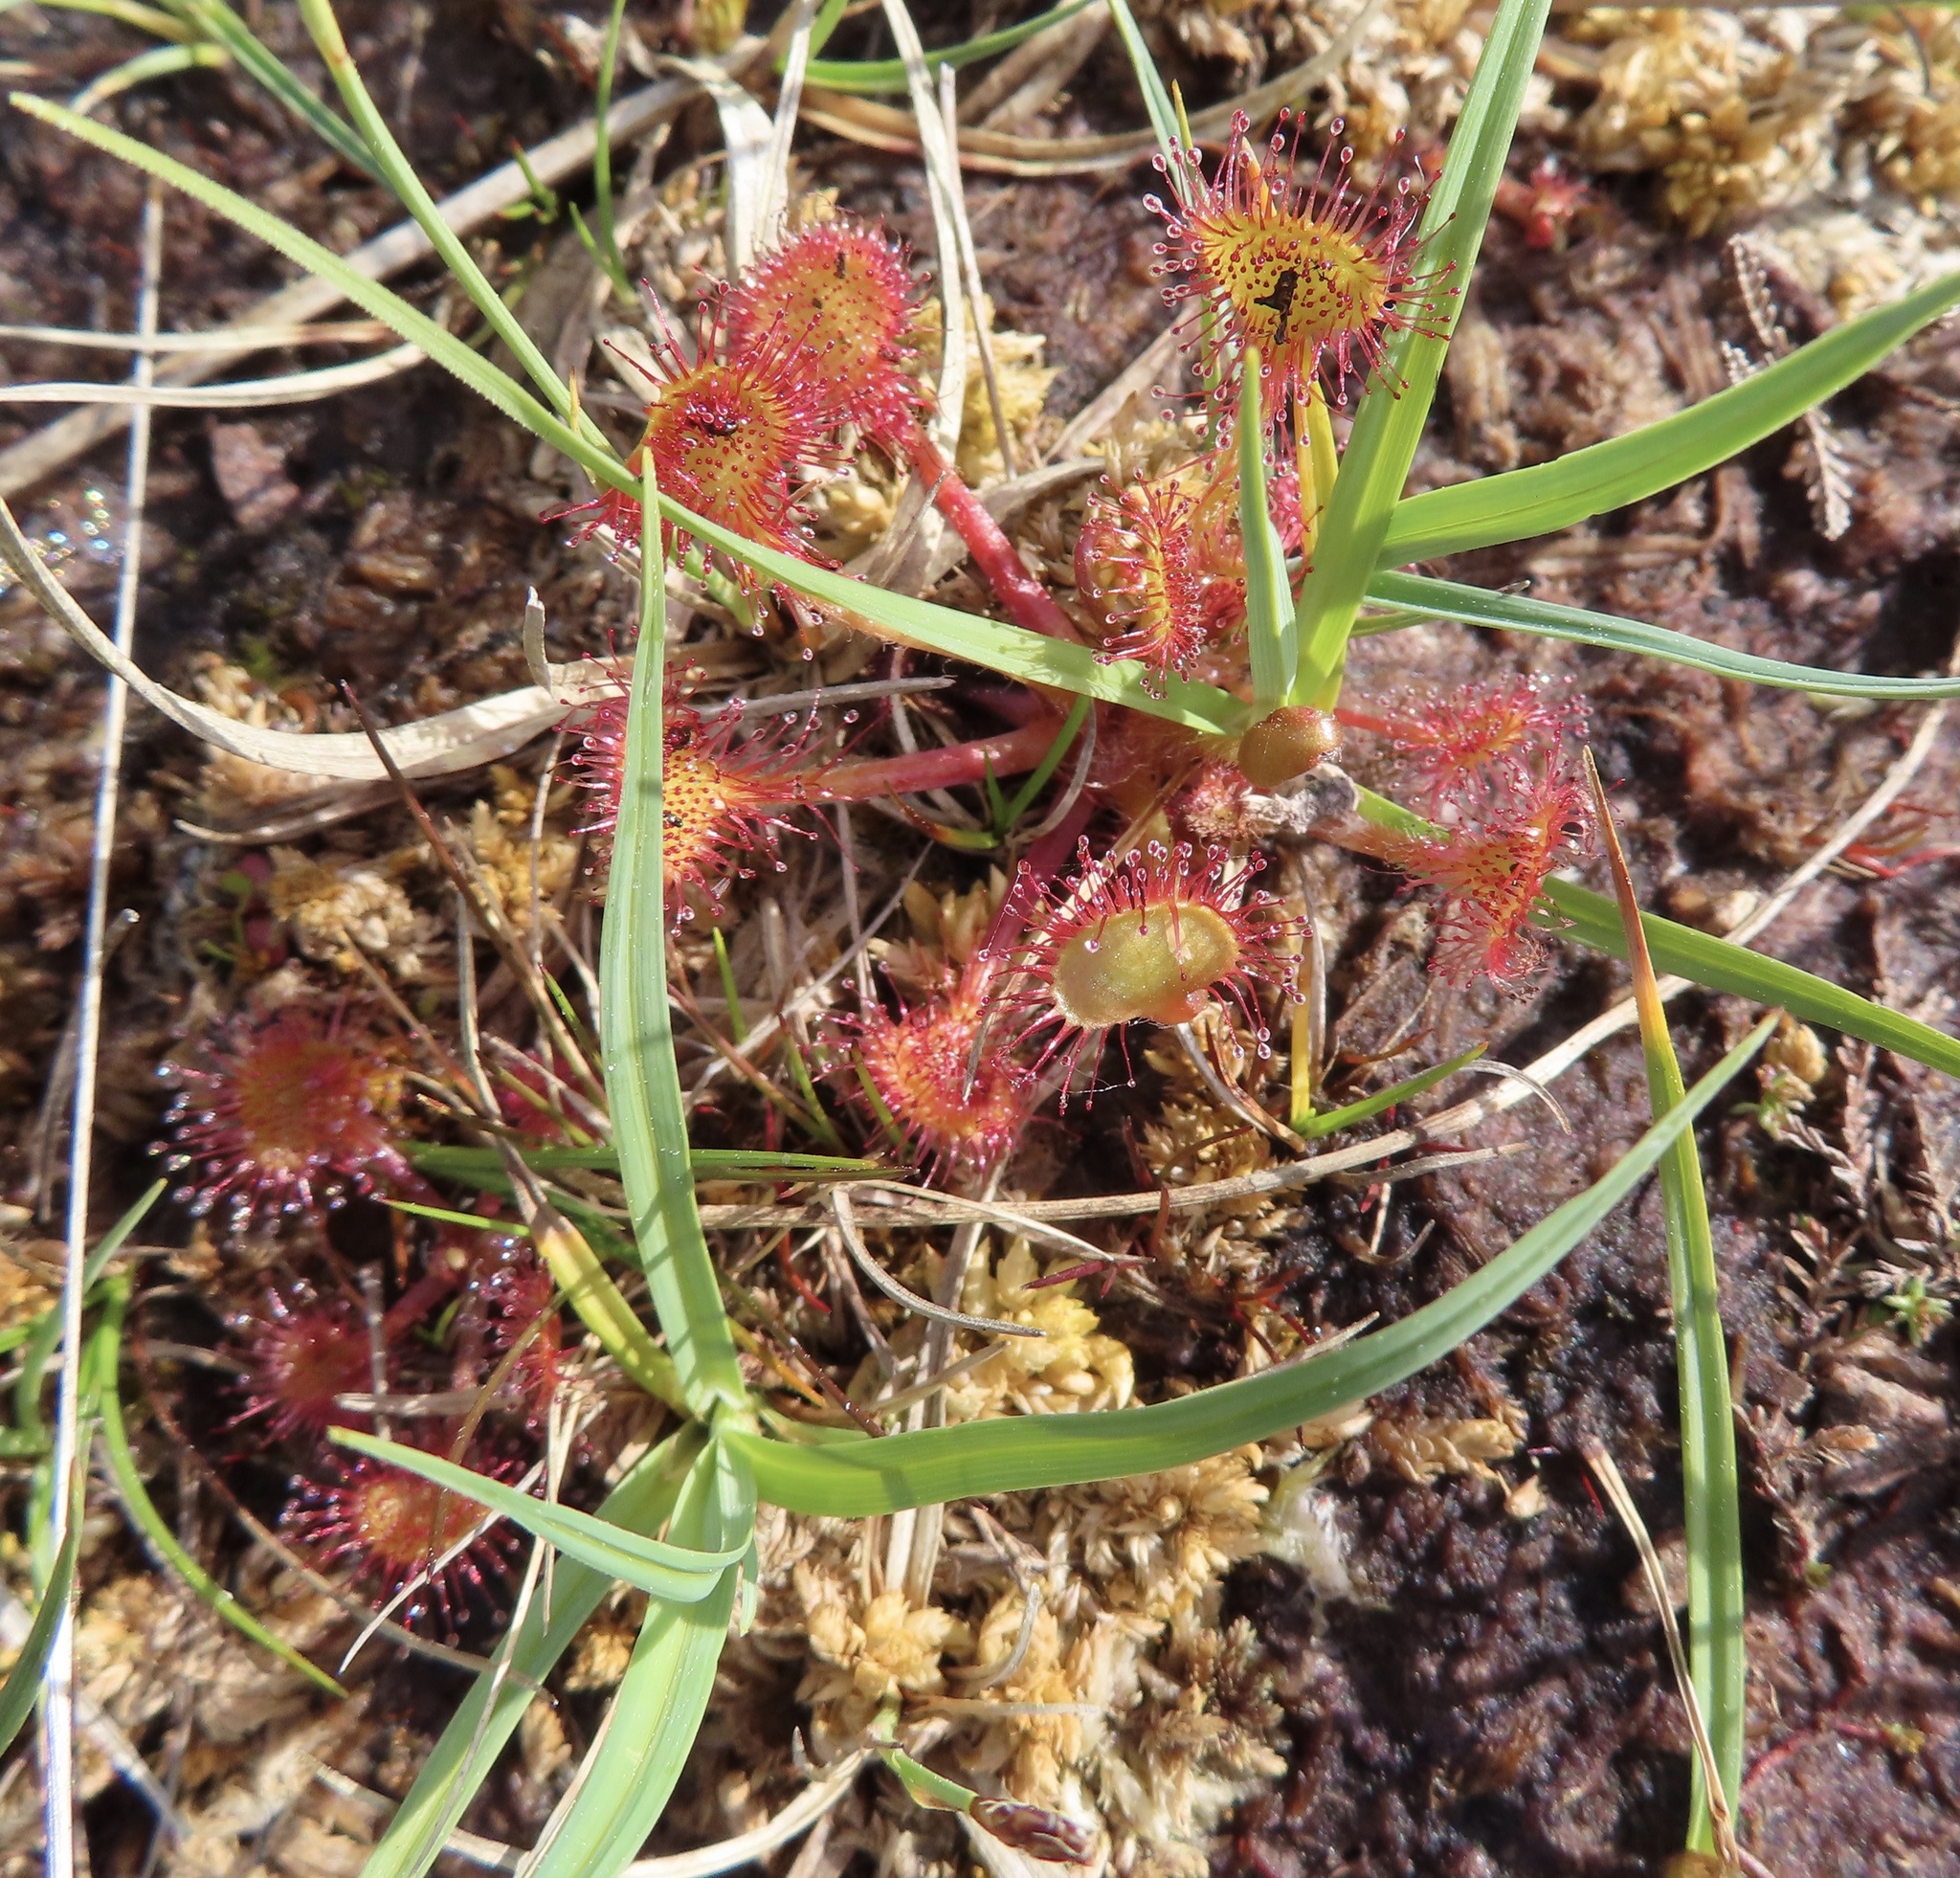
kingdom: Plantae
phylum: Tracheophyta
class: Magnoliopsida
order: Caryophyllales
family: Droseraceae
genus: Drosera
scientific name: Drosera rotundifolia
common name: Round-leaved sundew
